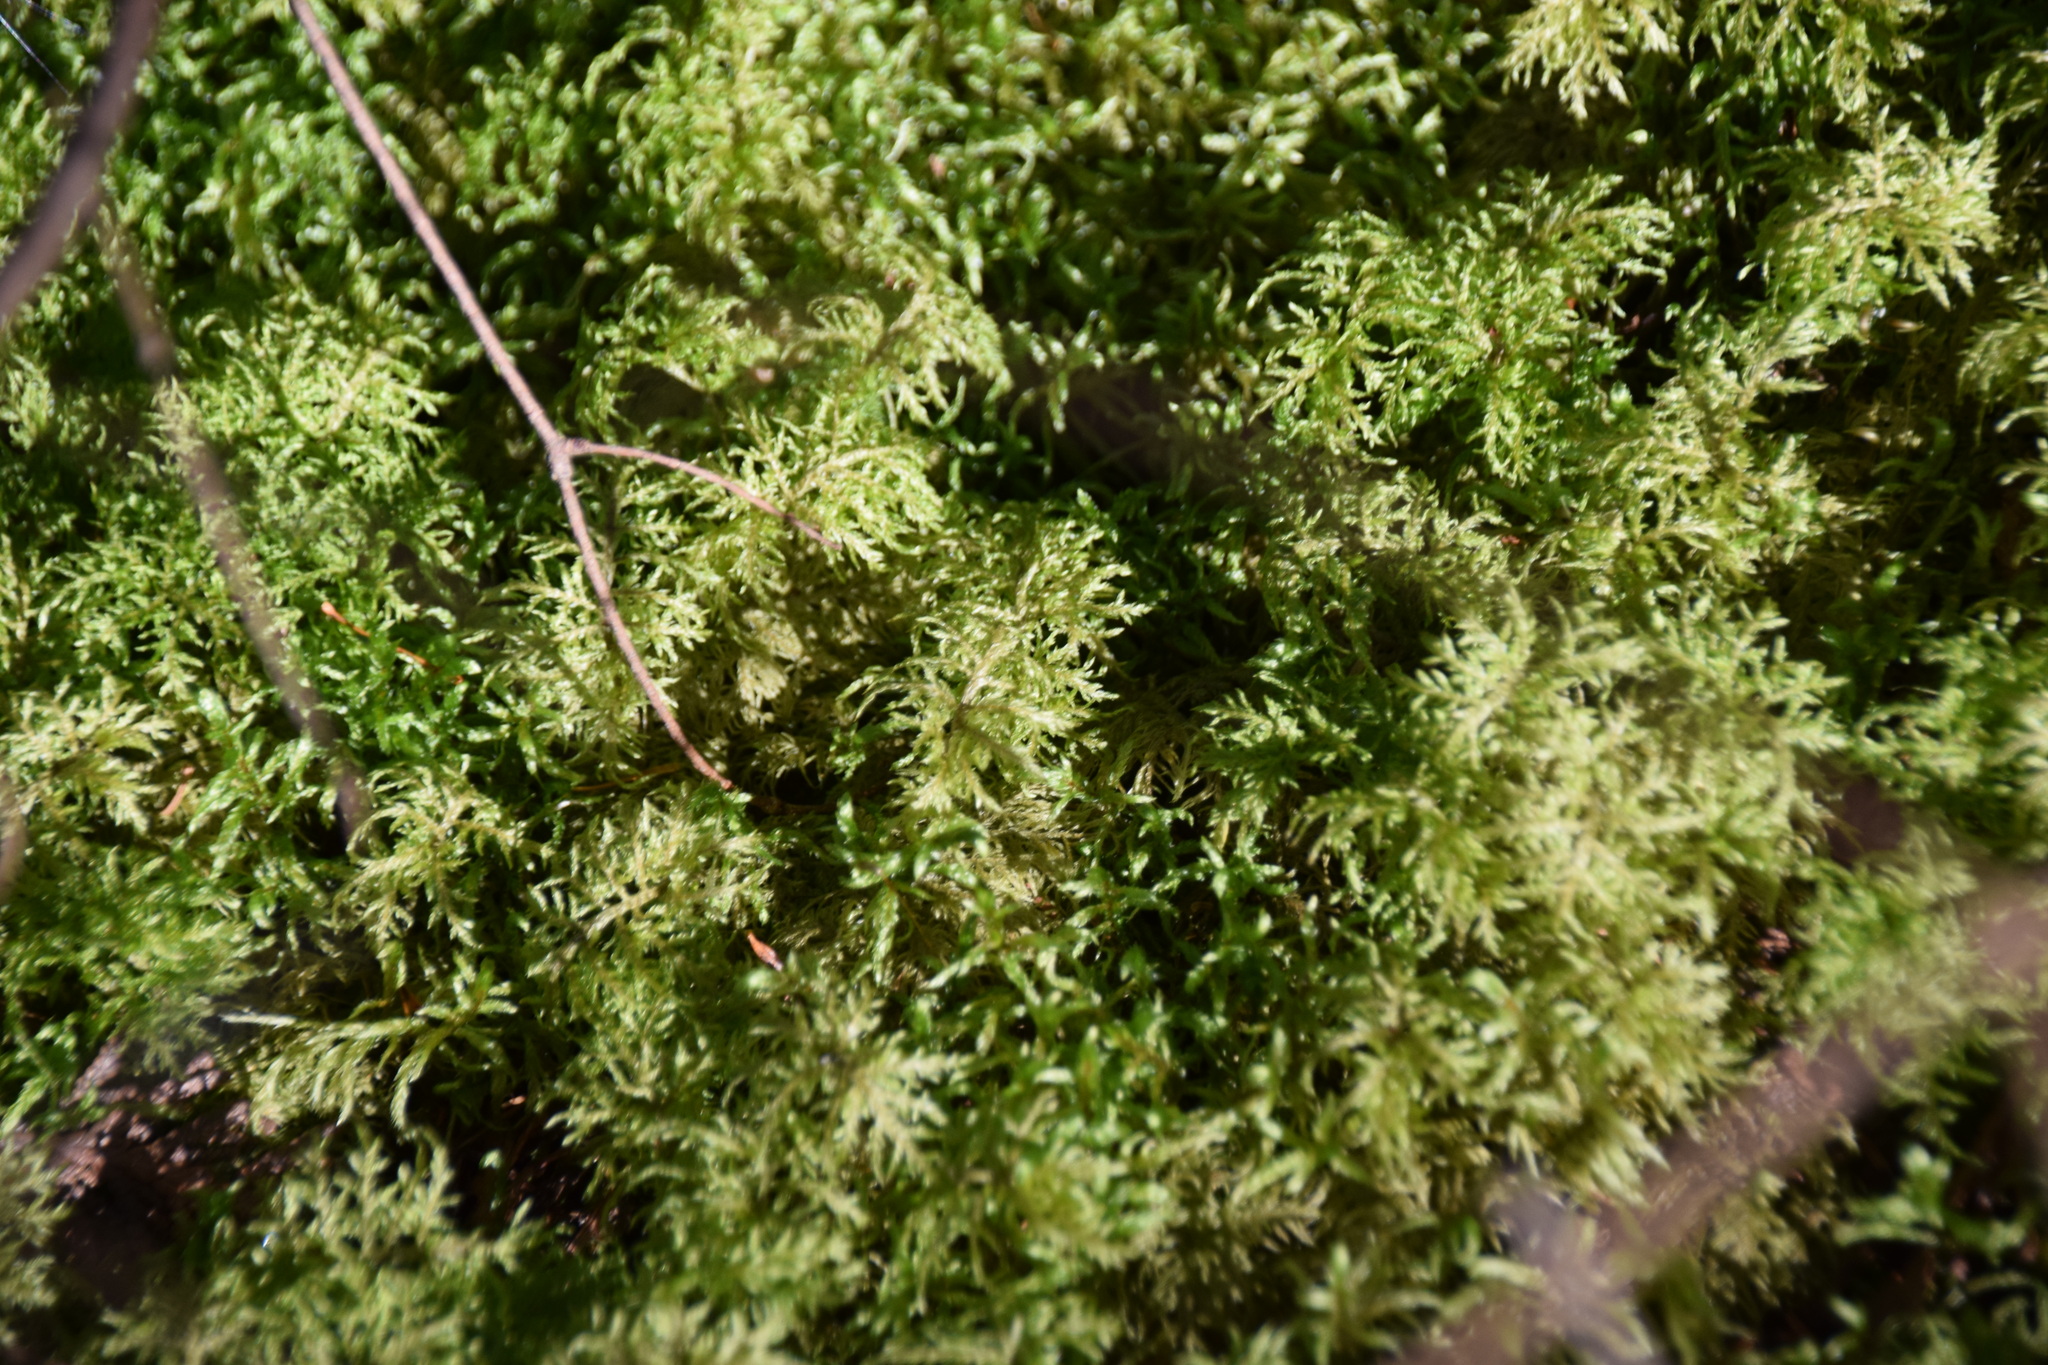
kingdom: Plantae
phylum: Bryophyta
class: Bryopsida
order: Hypnales
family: Hylocomiaceae
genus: Hylocomium
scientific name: Hylocomium splendens
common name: Stairstep moss
